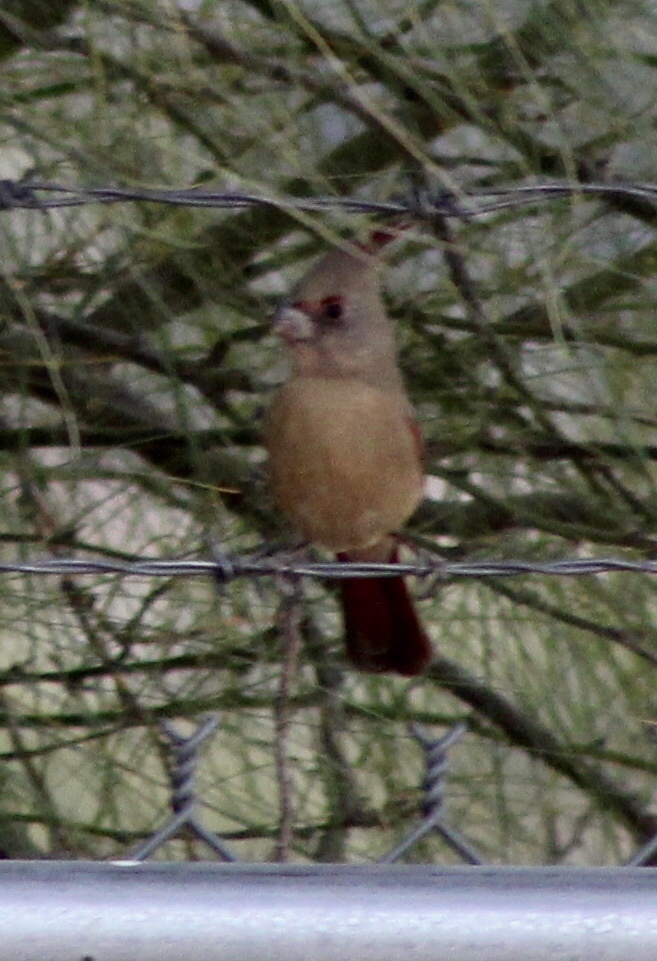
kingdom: Animalia
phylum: Chordata
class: Aves
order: Passeriformes
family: Cardinalidae
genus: Cardinalis
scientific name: Cardinalis sinuatus
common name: Pyrrhuloxia
